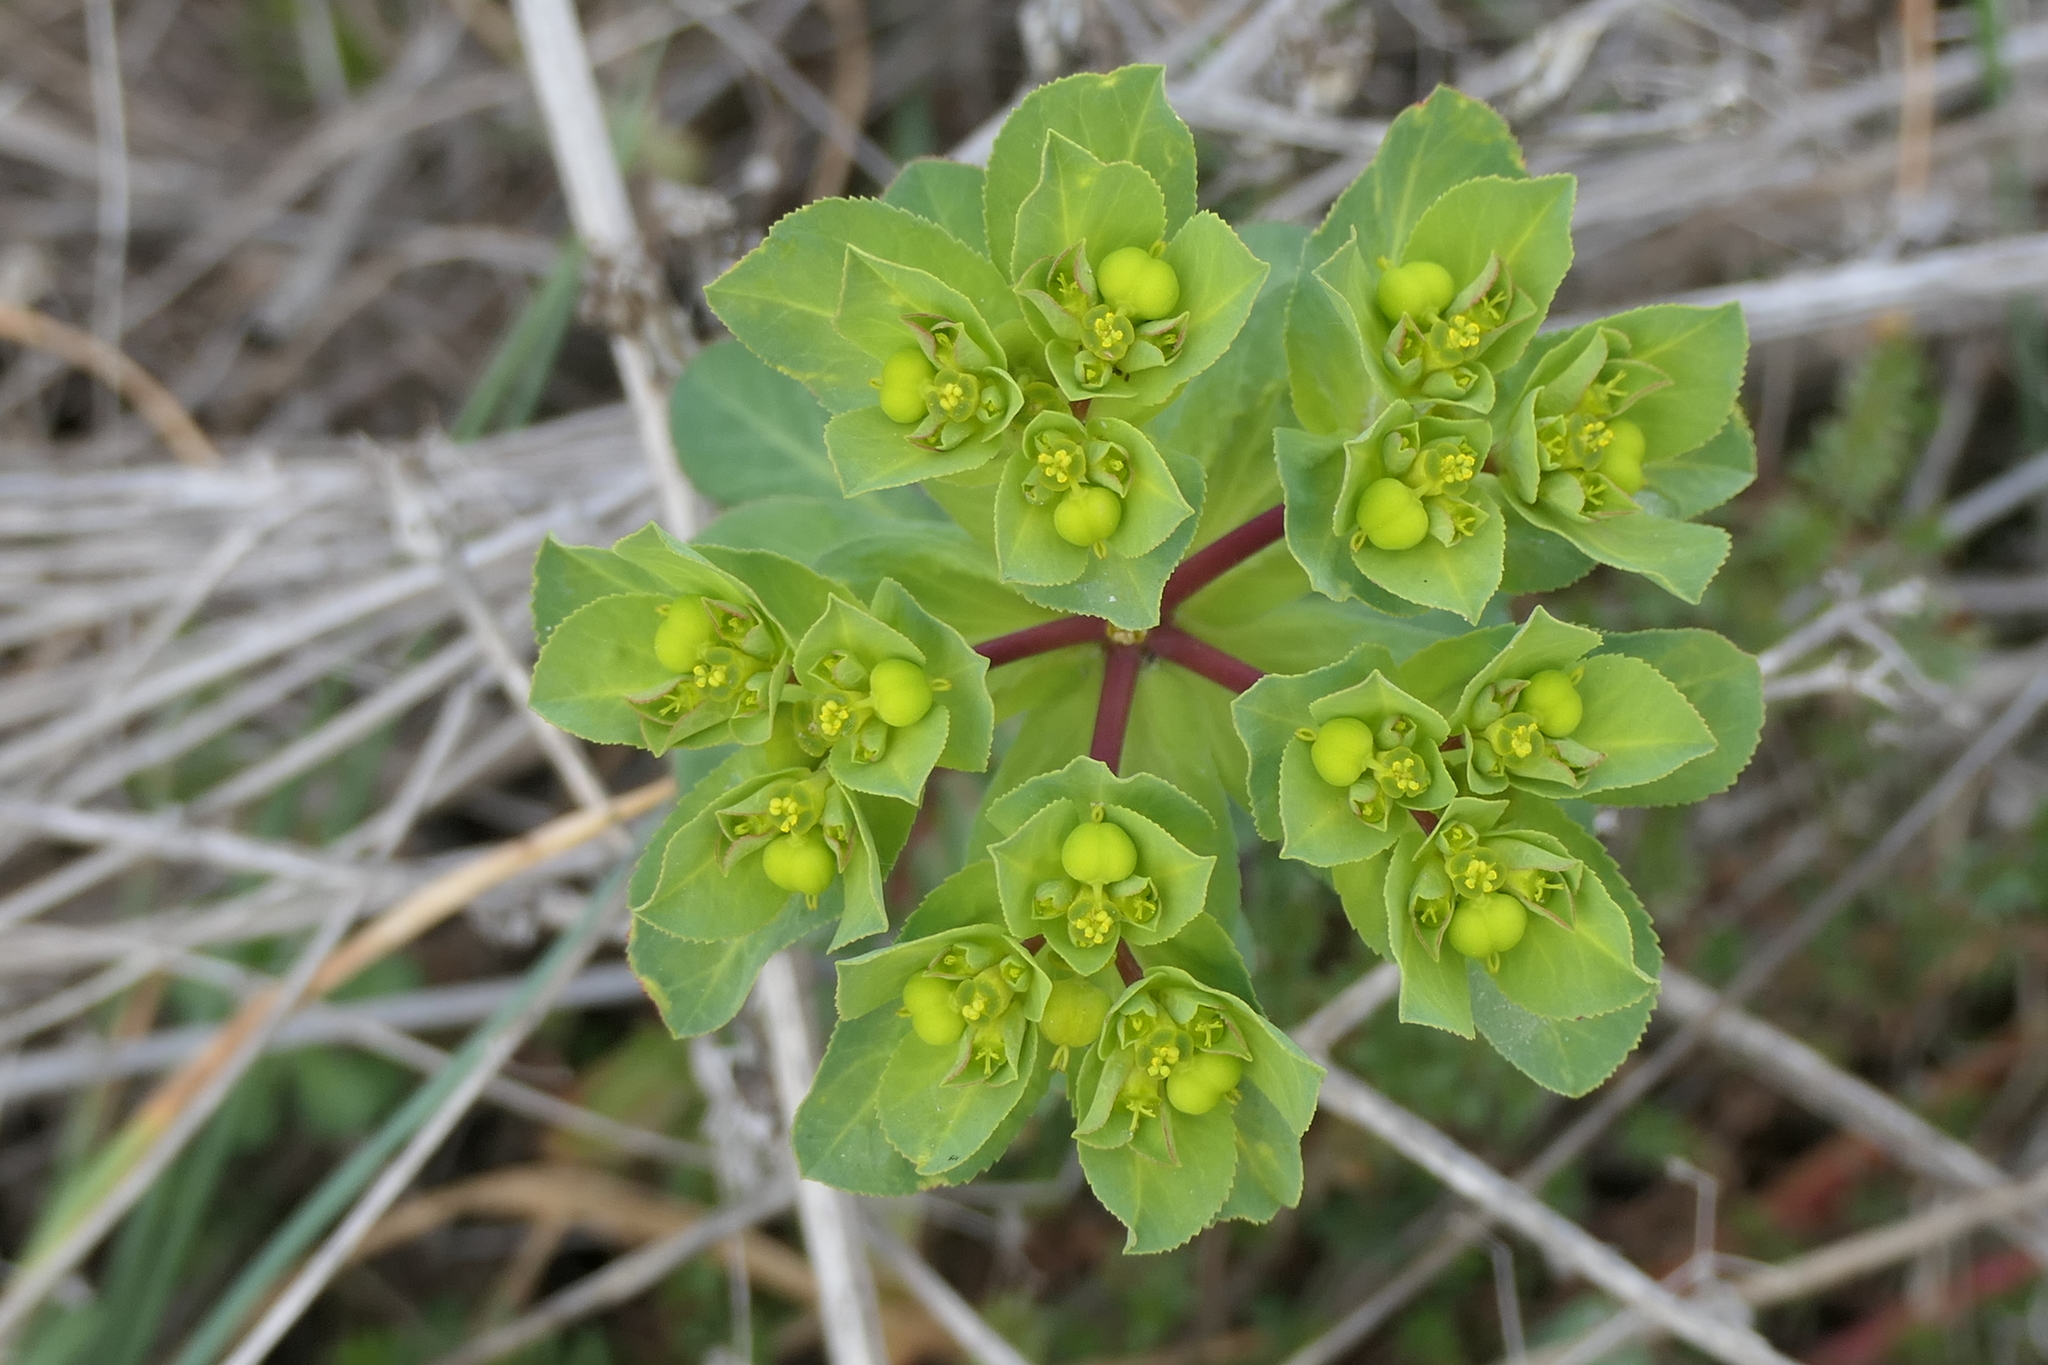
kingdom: Plantae
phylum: Tracheophyta
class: Magnoliopsida
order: Malpighiales
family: Euphorbiaceae
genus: Euphorbia
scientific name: Euphorbia helioscopia
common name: Sun spurge
